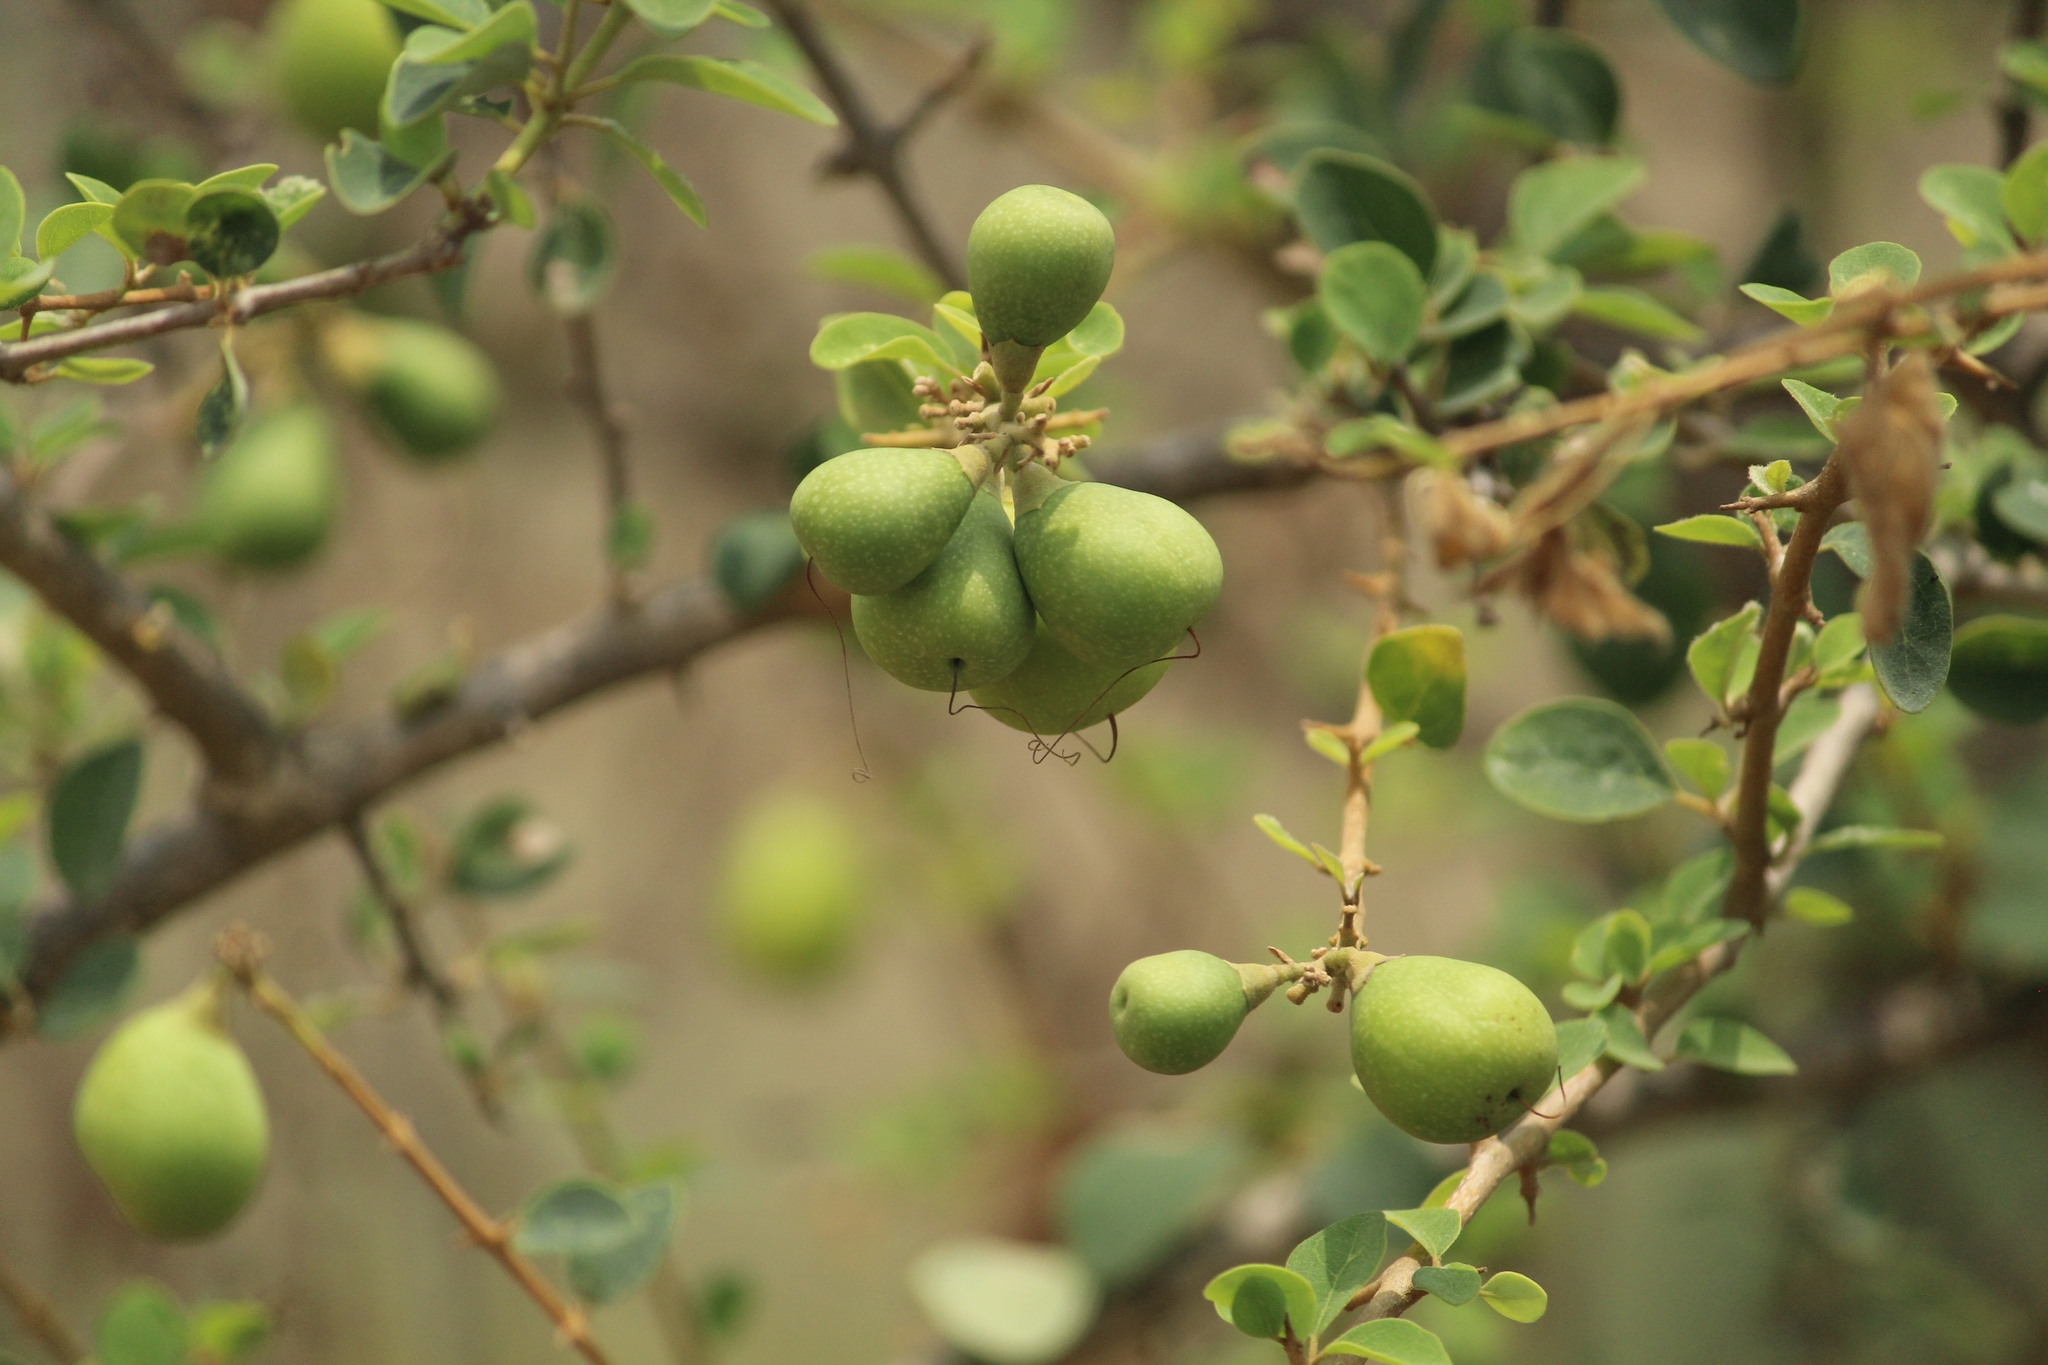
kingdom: Plantae
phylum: Tracheophyta
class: Magnoliopsida
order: Lamiales
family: Lamiaceae
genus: Gmelina
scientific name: Gmelina asiatica
